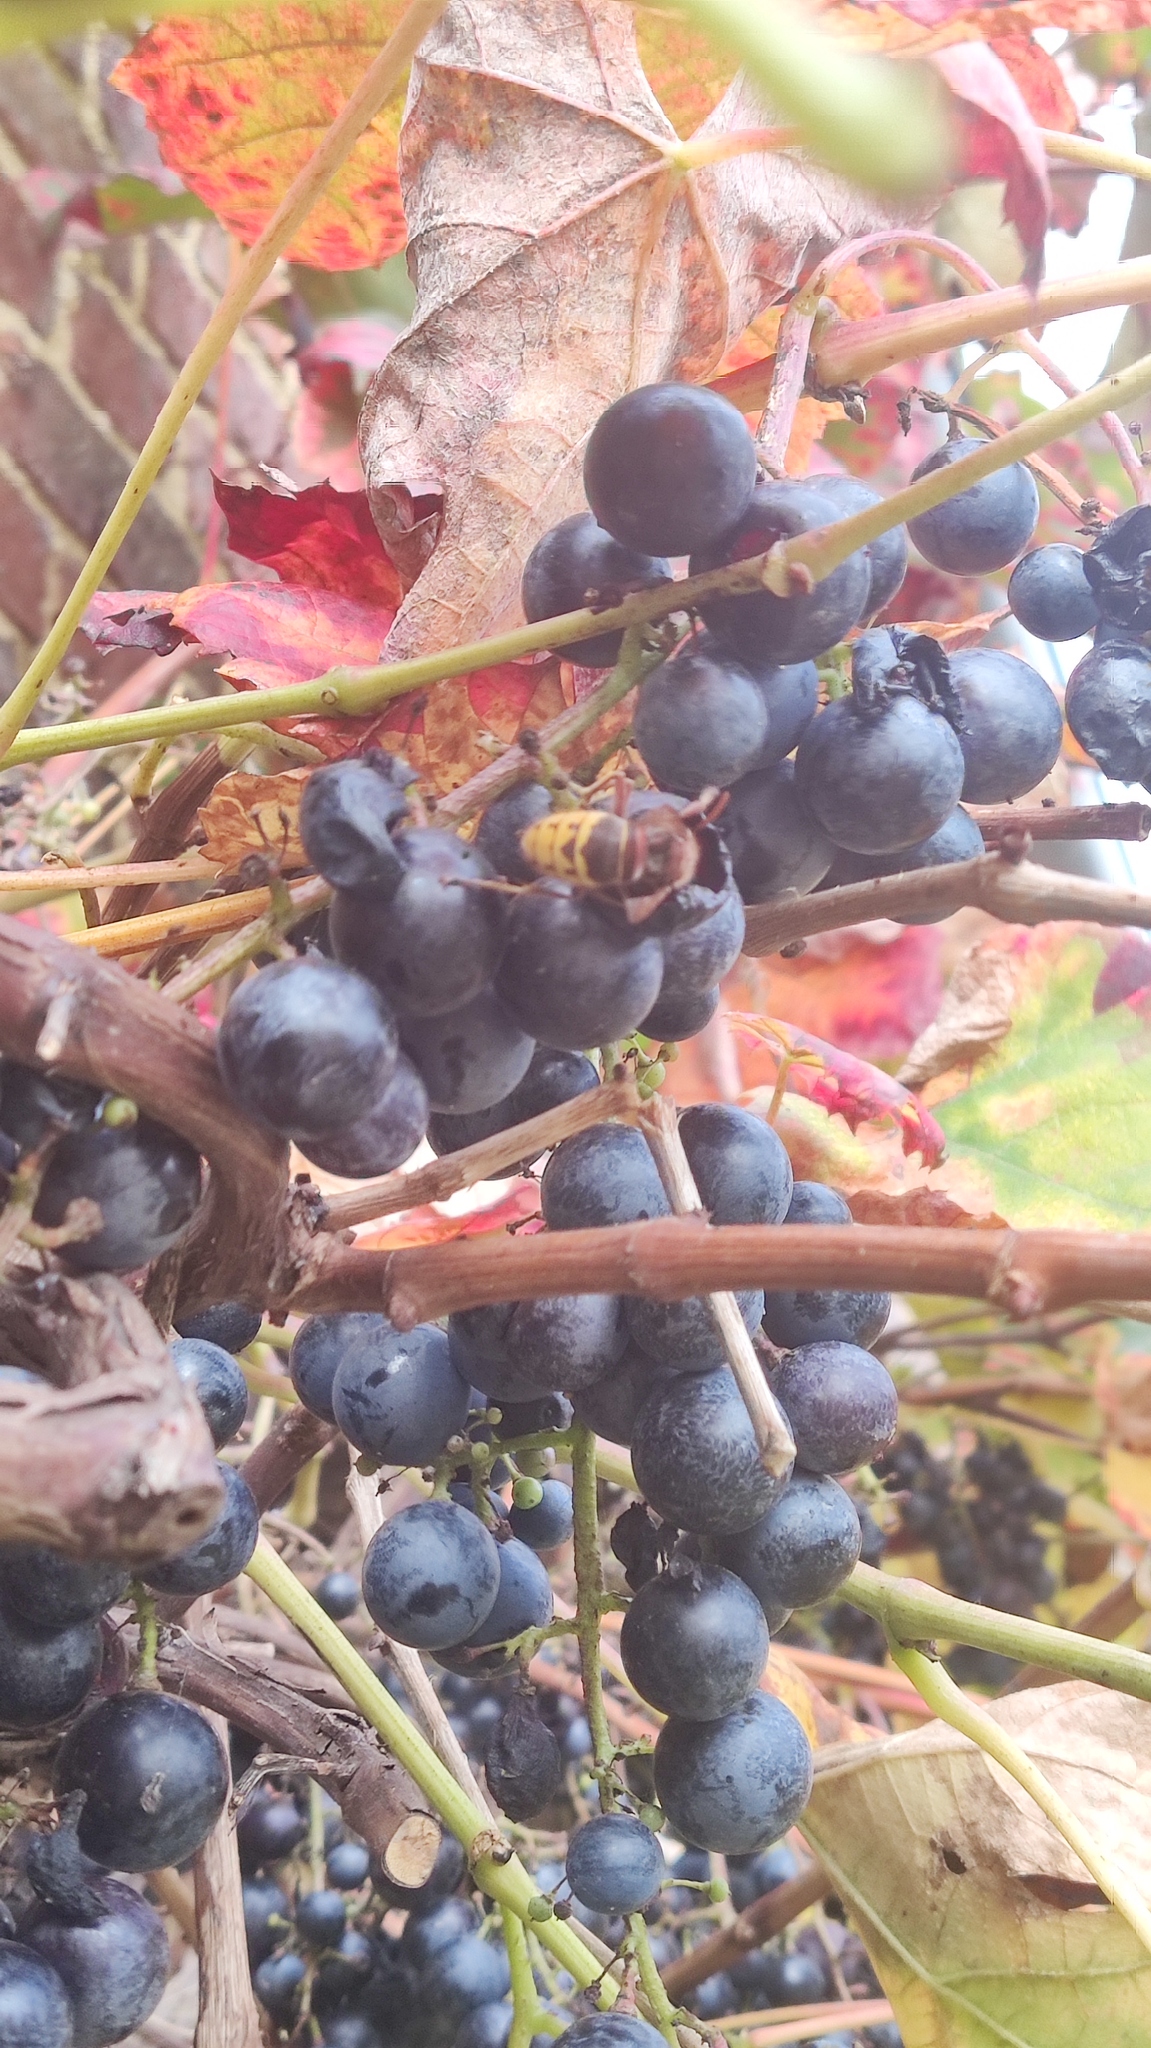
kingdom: Animalia
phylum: Arthropoda
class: Insecta
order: Hymenoptera
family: Vespidae
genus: Vespa
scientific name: Vespa crabro
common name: Hornet
